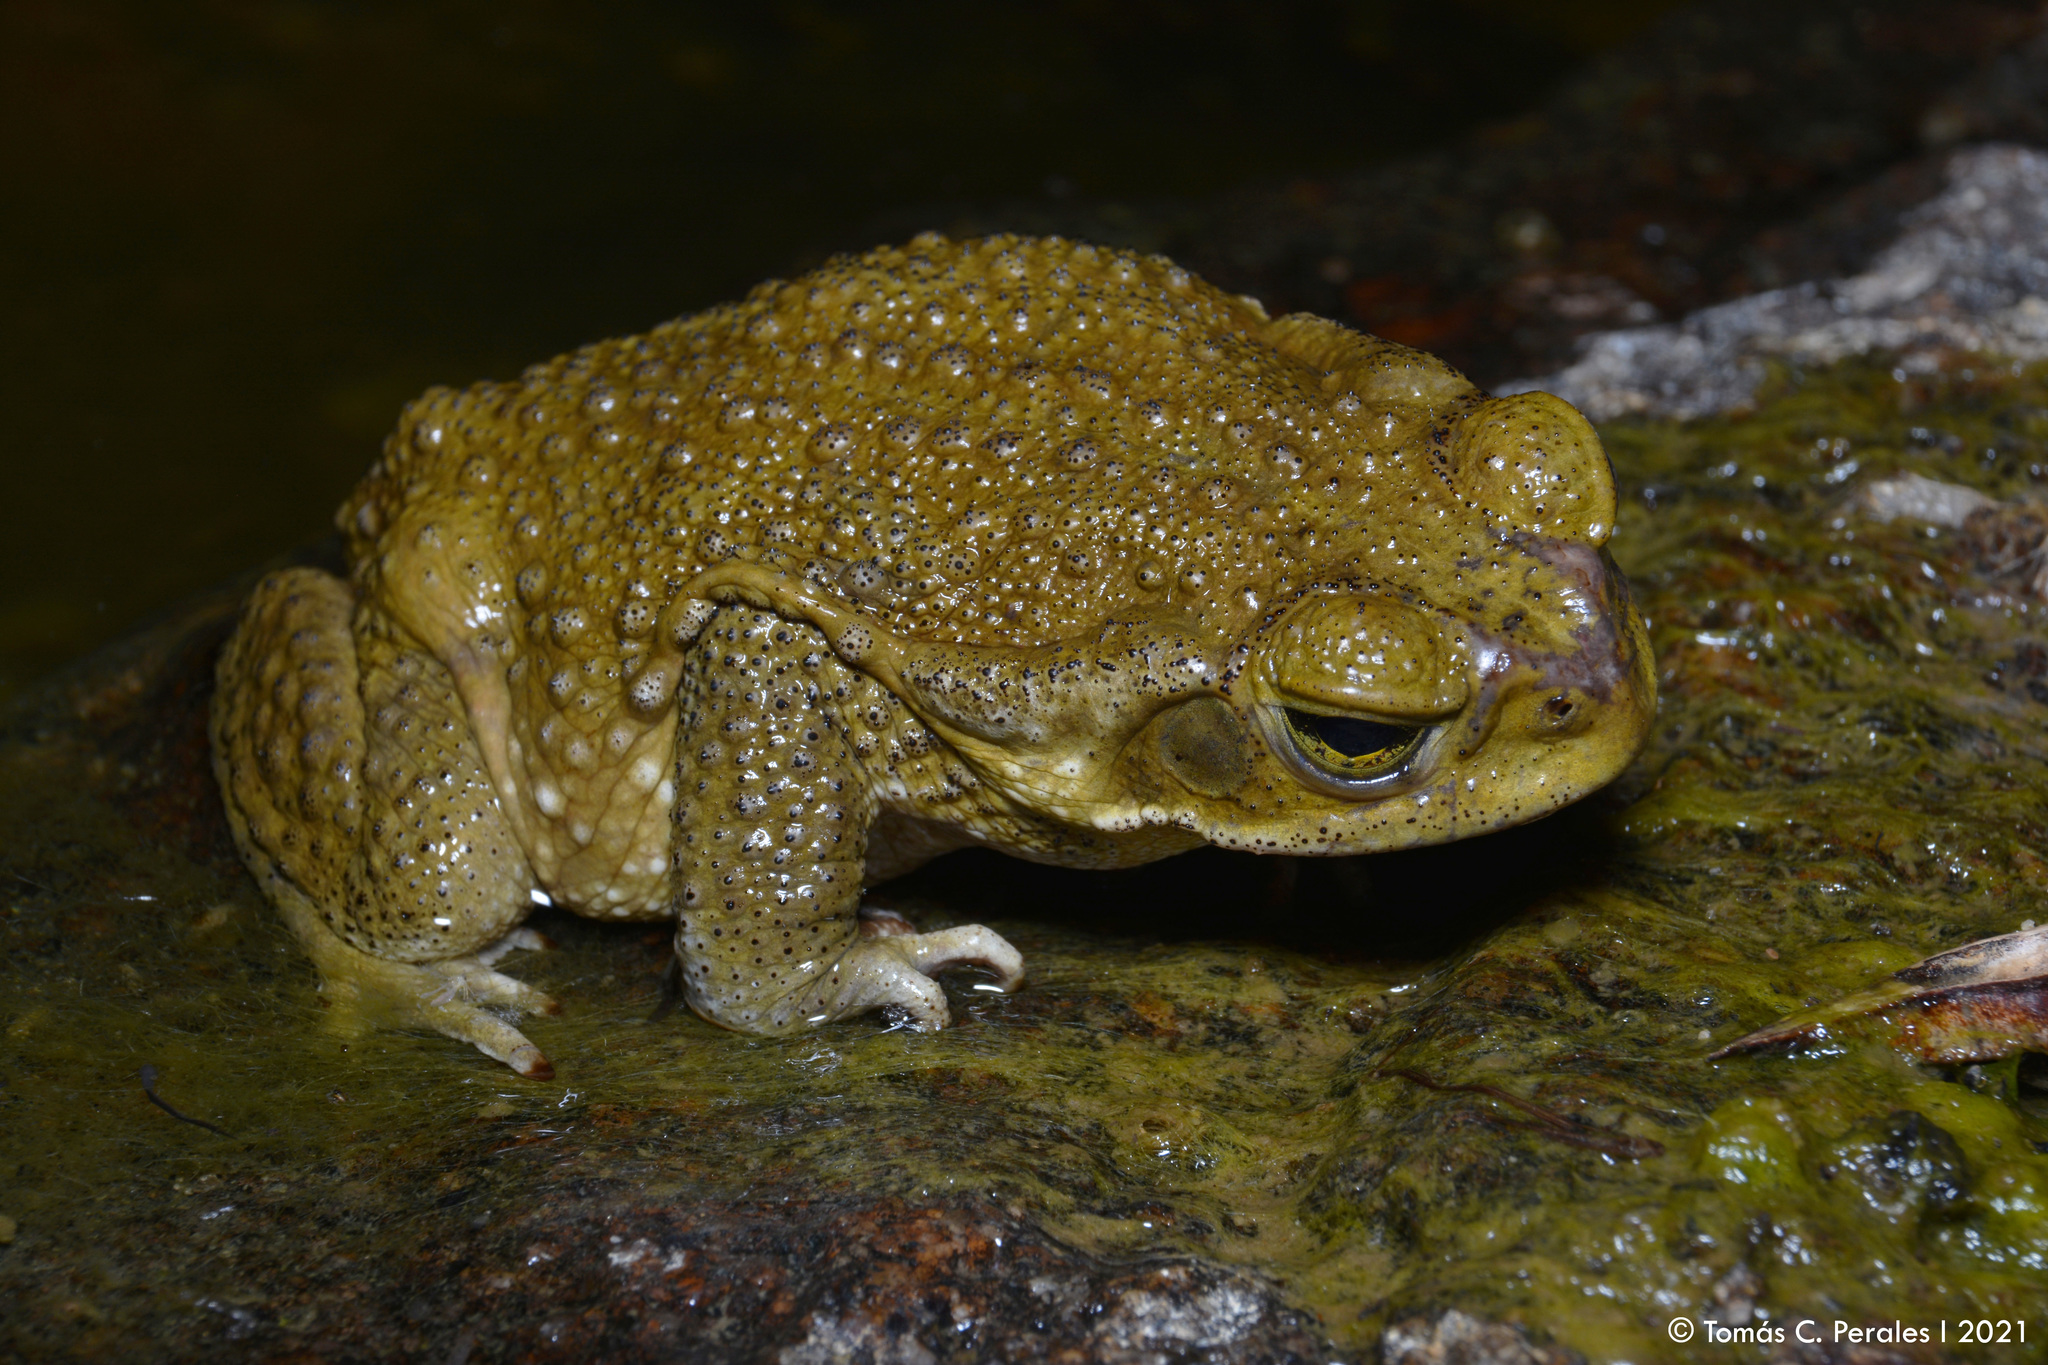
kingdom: Animalia
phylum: Chordata
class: Amphibia
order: Anura
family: Bufonidae
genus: Rhinella
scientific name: Rhinella arenarum
